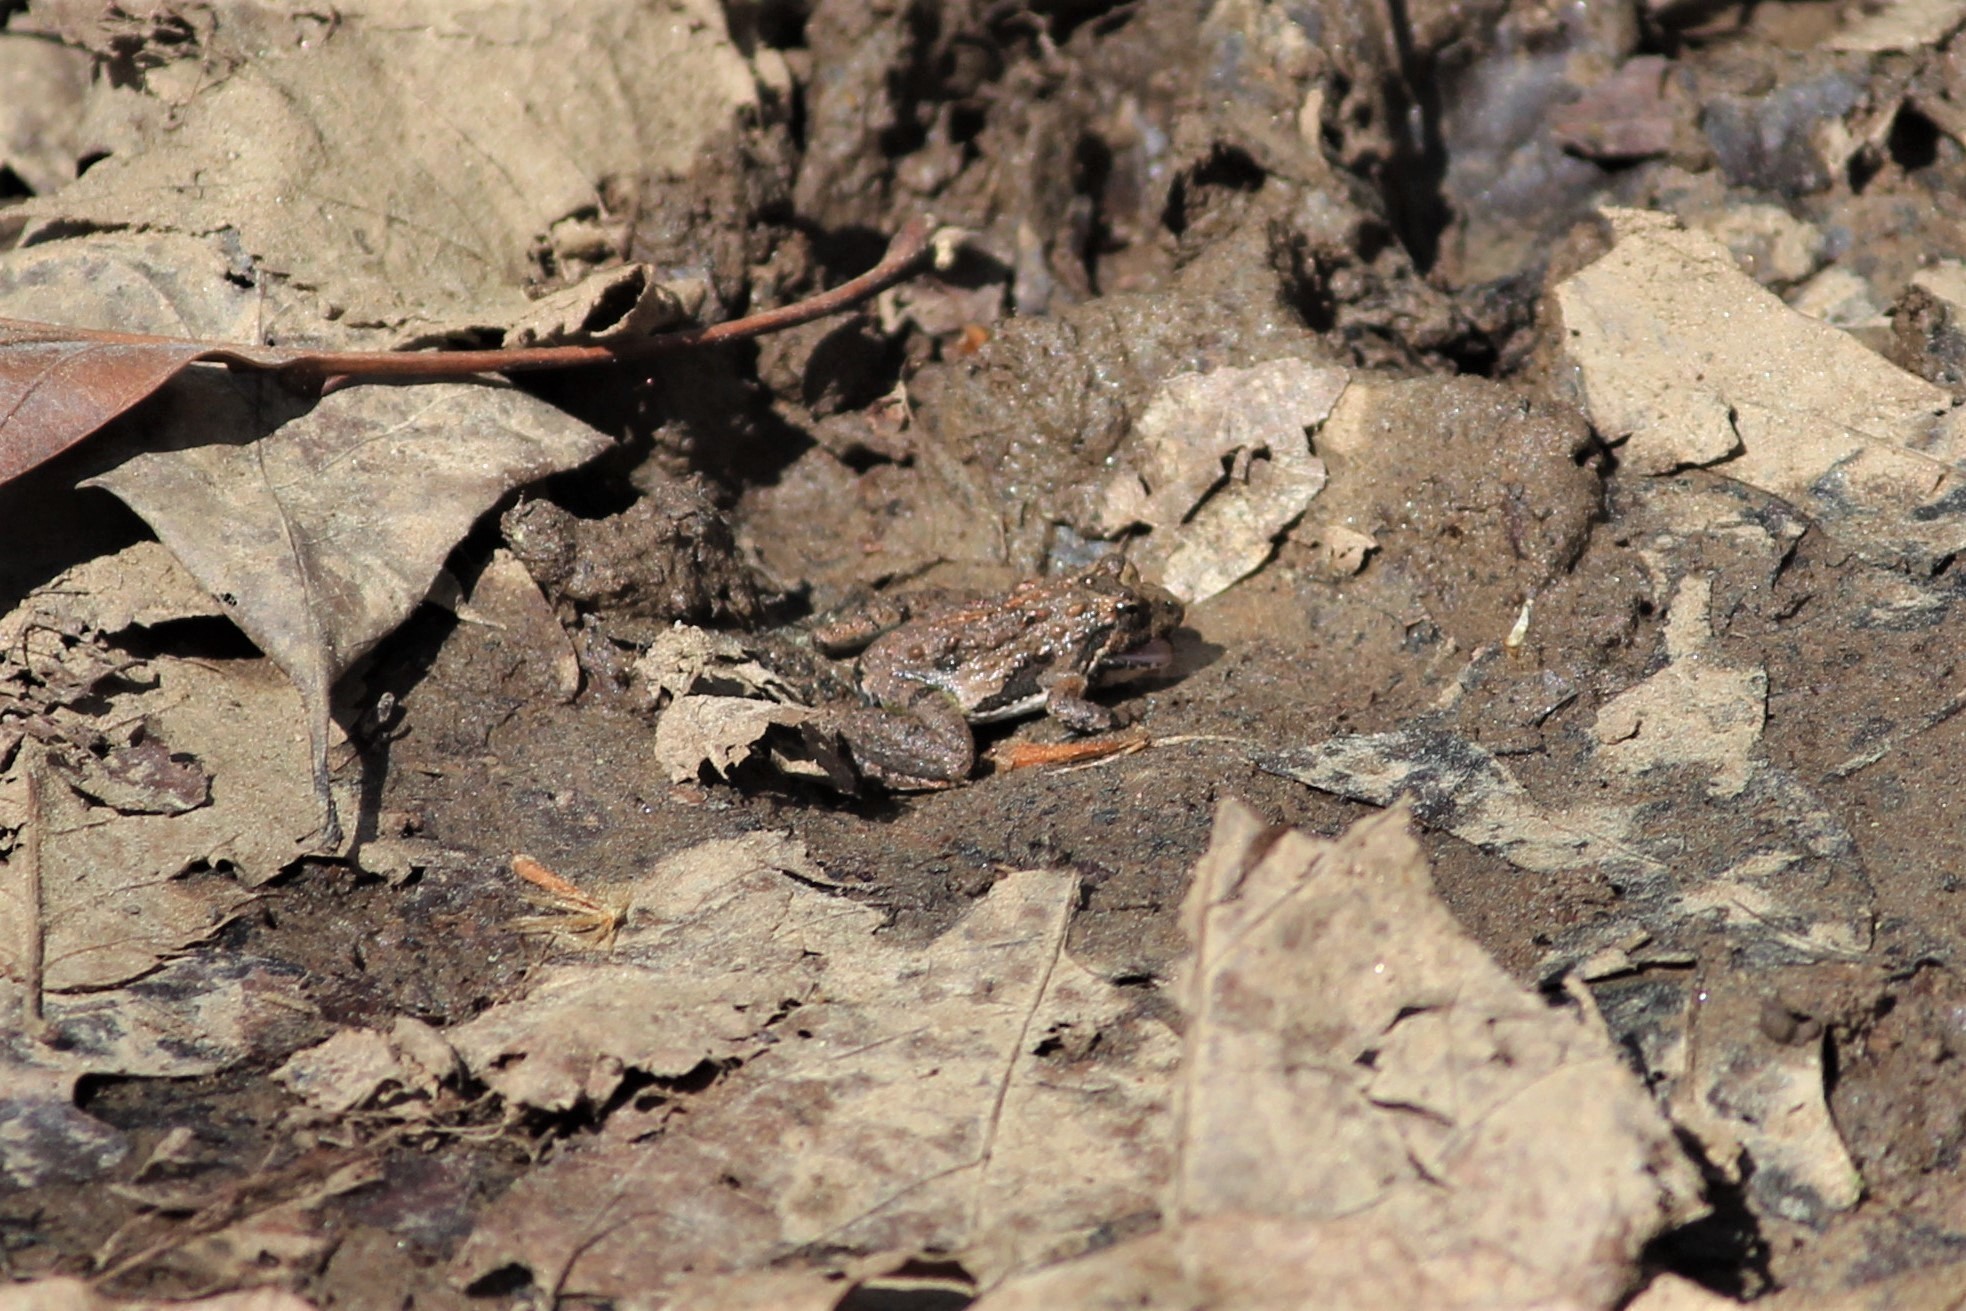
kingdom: Animalia
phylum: Chordata
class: Amphibia
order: Anura
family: Hylidae
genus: Acris
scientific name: Acris crepitans
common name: Northern cricket frog
